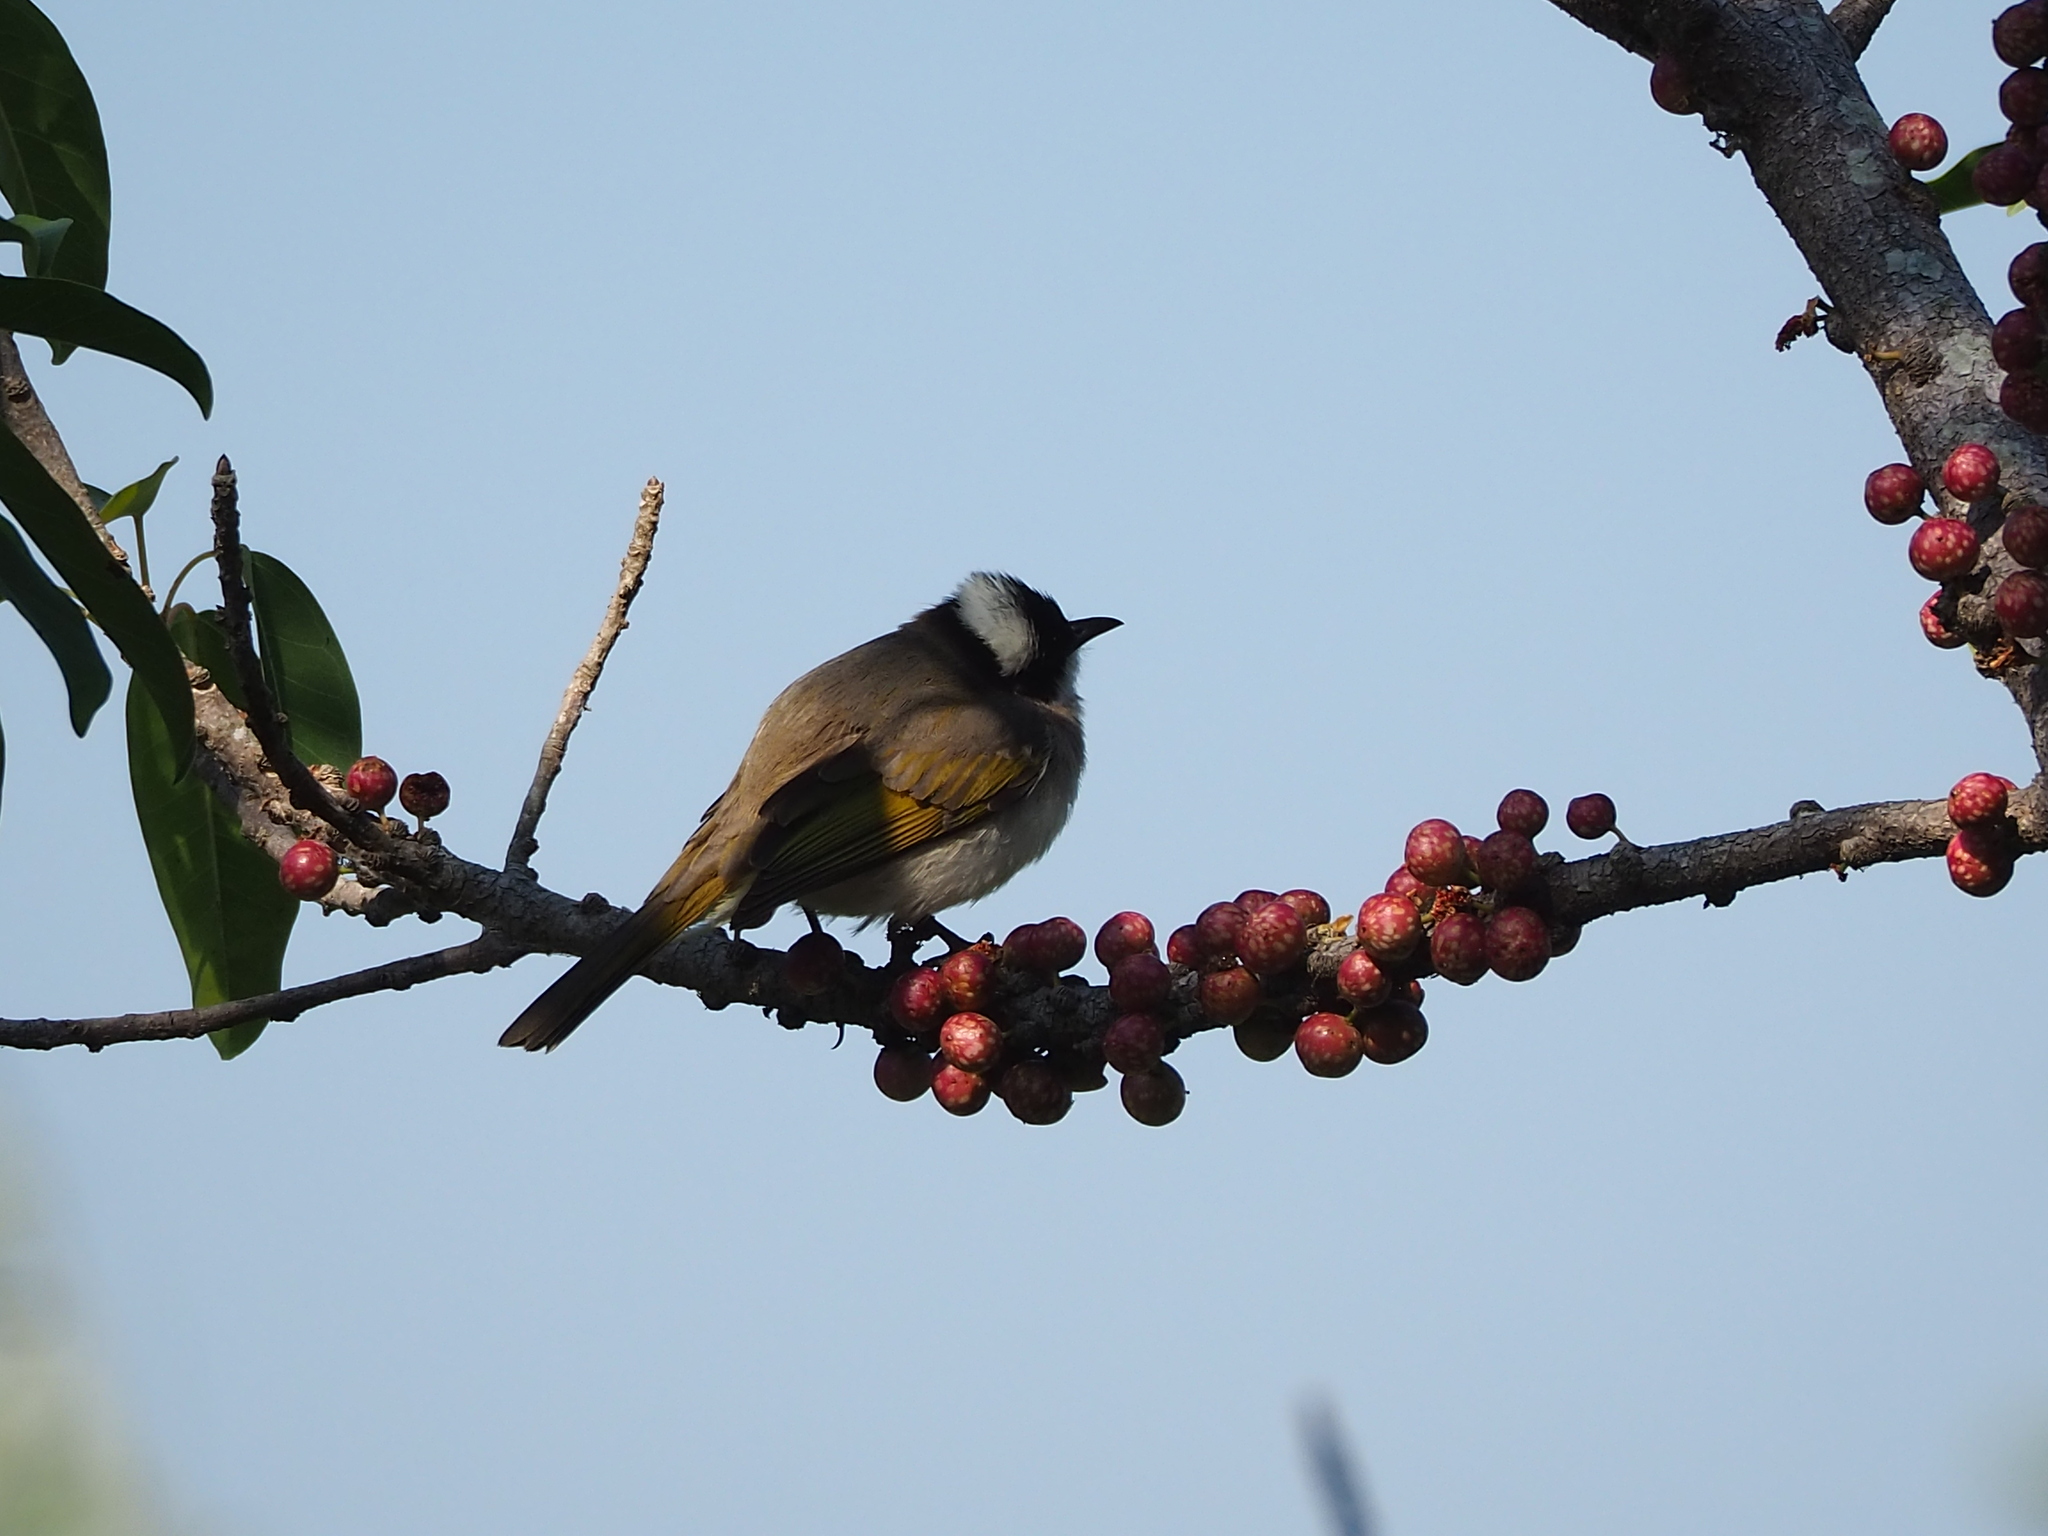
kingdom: Animalia
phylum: Chordata
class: Aves
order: Passeriformes
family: Pycnonotidae
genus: Pycnonotus
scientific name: Pycnonotus sinensis
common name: Light-vented bulbul
